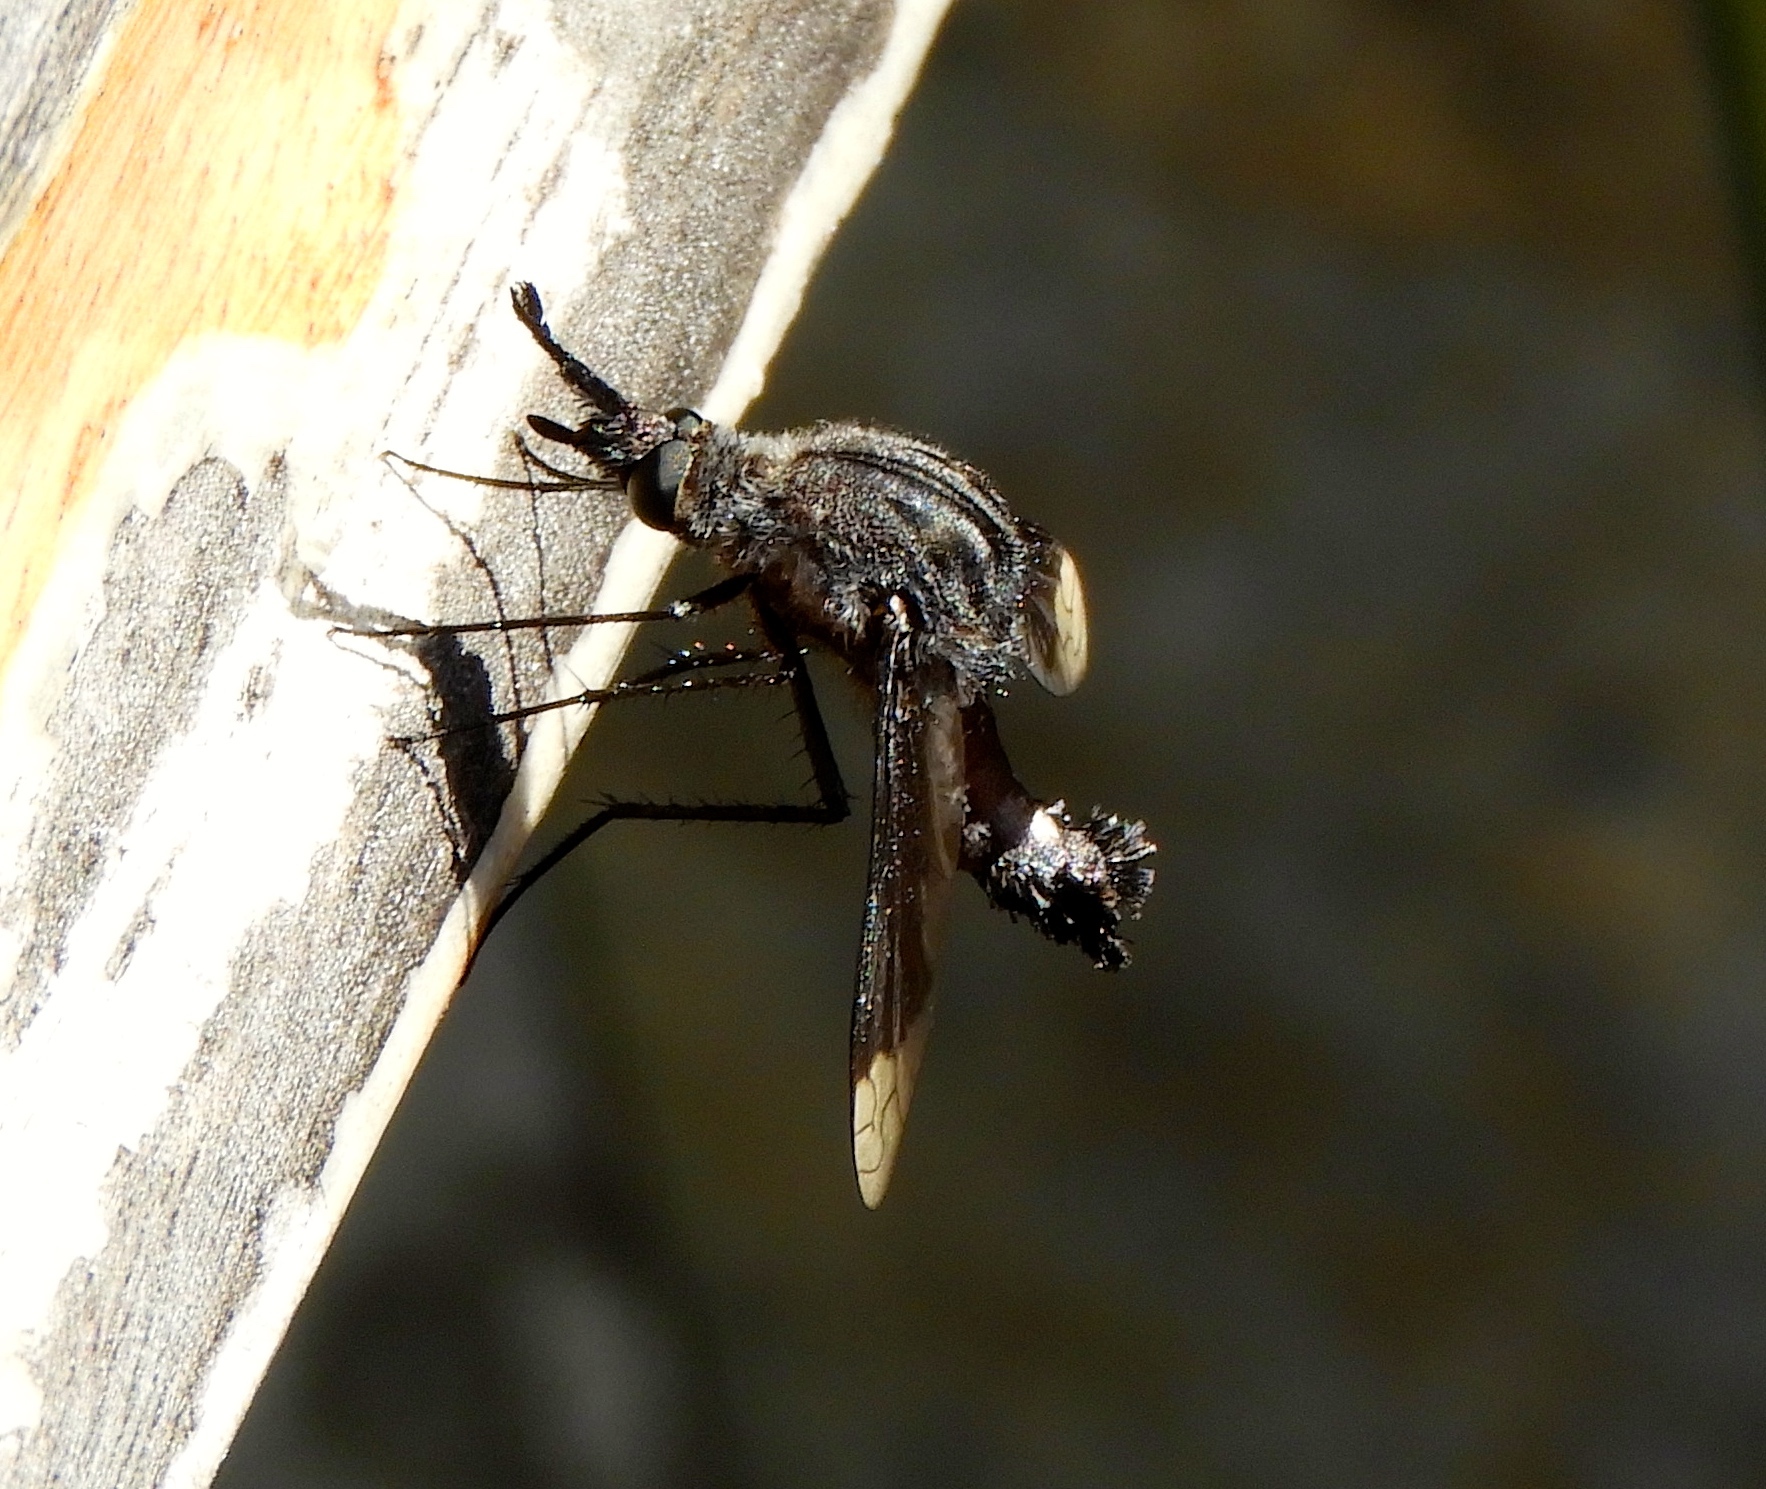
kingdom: Animalia
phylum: Arthropoda
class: Insecta
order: Diptera
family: Bombyliidae
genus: Lepidophora
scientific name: Lepidophora vetusta
